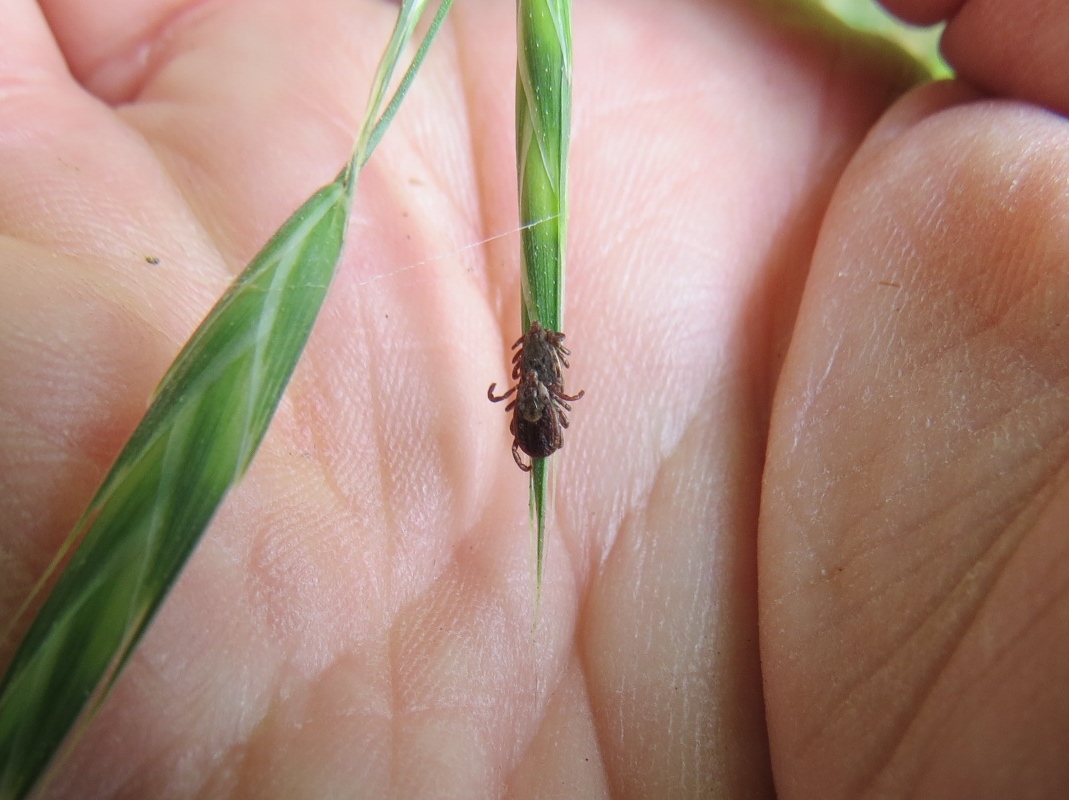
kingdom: Animalia
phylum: Arthropoda
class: Arachnida
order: Ixodida
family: Ixodidae
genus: Dermacentor
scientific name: Dermacentor occidentalis
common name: Net tick
